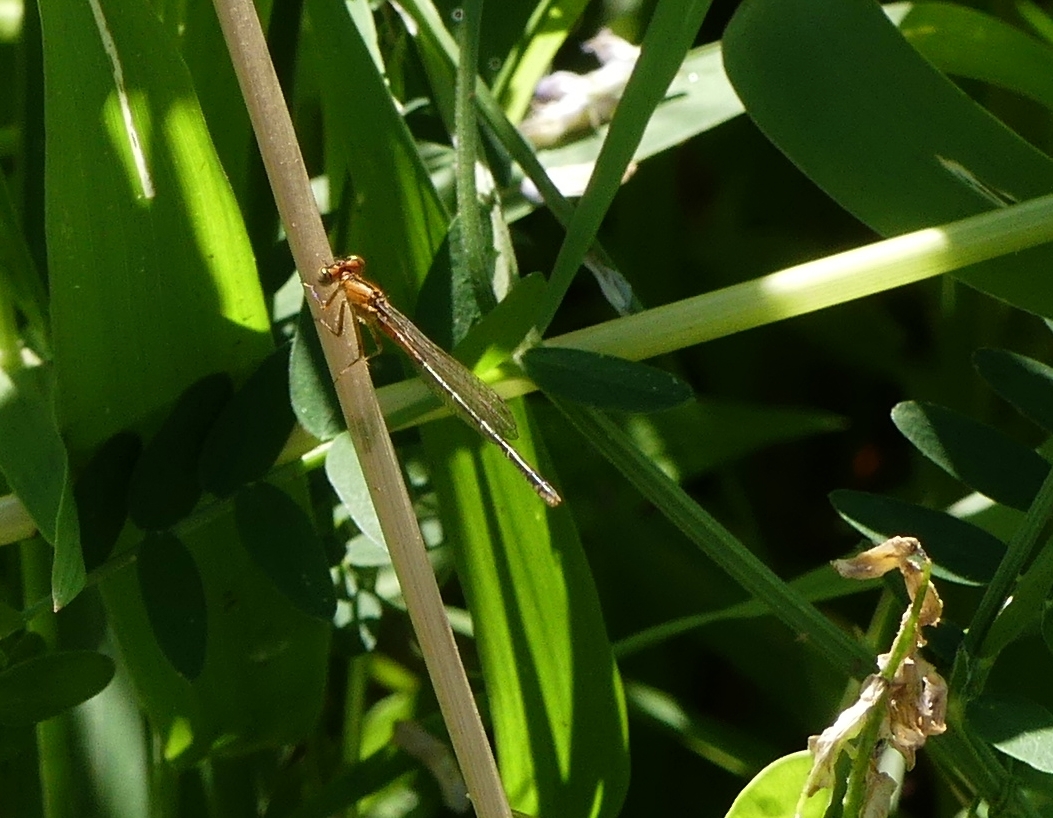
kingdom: Animalia
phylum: Arthropoda
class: Insecta
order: Odonata
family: Coenagrionidae
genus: Ischnura
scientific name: Ischnura verticalis
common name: Eastern forktail
